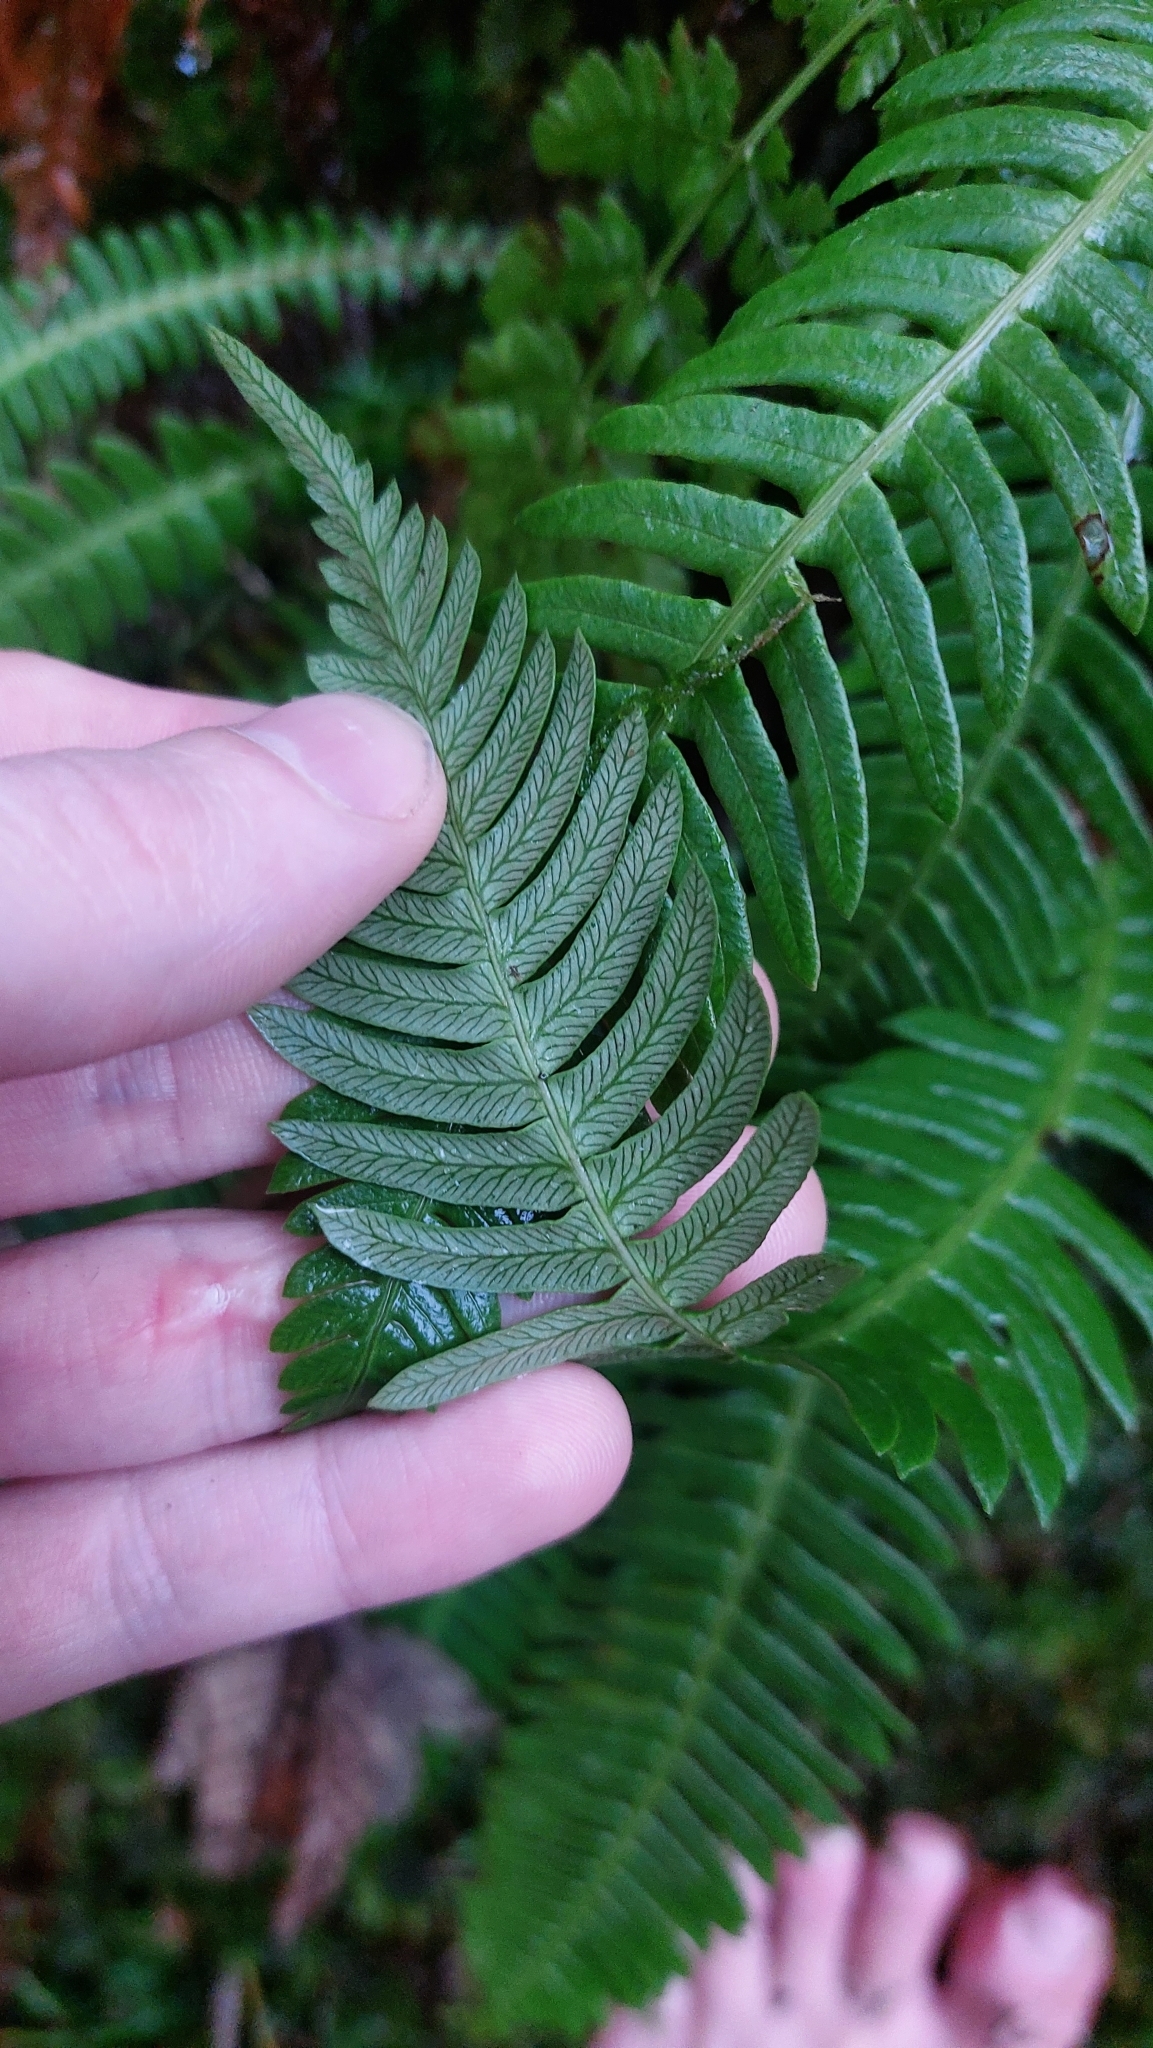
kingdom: Plantae
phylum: Tracheophyta
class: Polypodiopsida
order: Polypodiales
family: Blechnaceae
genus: Struthiopteris
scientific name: Struthiopteris spicant
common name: Deer fern
